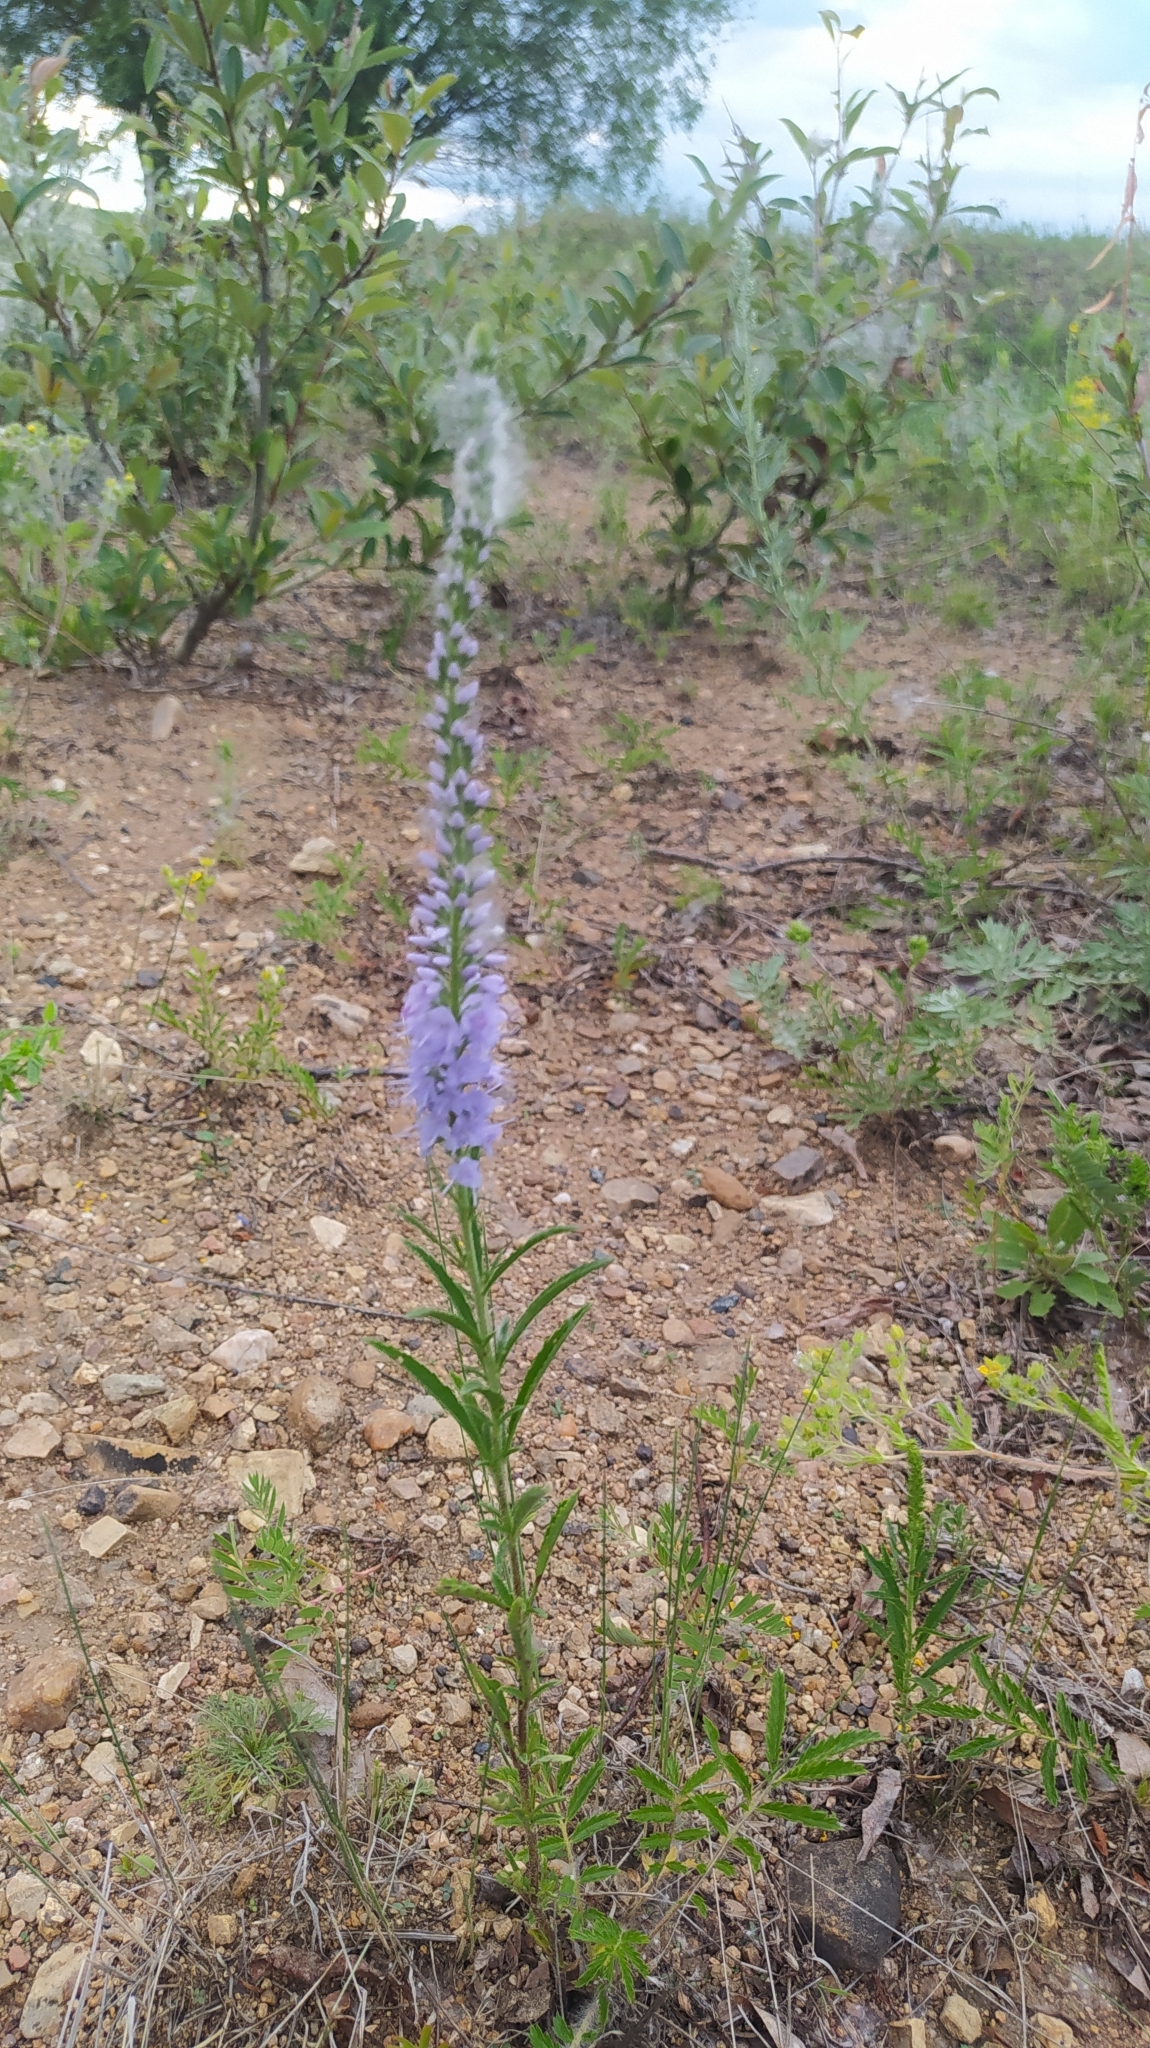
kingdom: Plantae
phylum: Tracheophyta
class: Magnoliopsida
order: Lamiales
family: Plantaginaceae
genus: Veronica
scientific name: Veronica linariifolia
